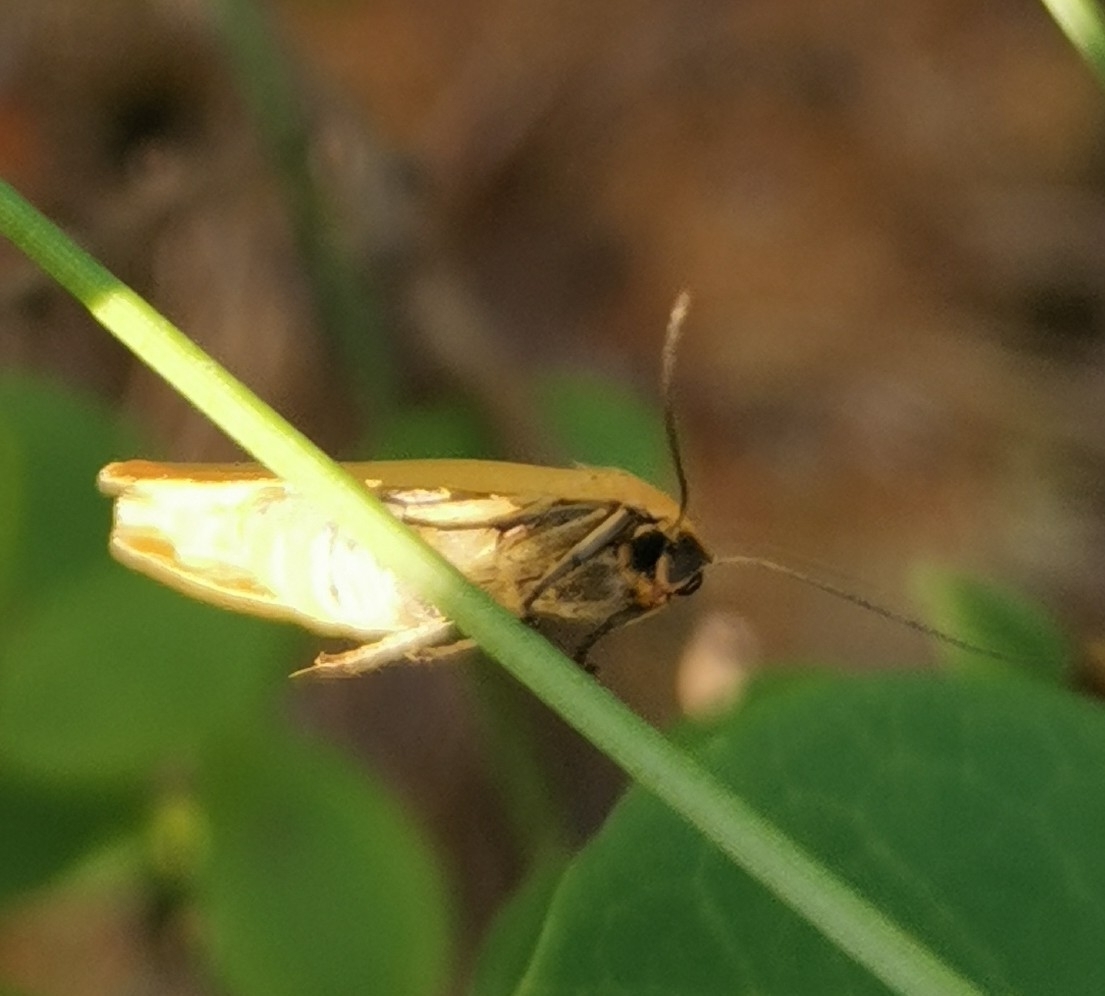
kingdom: Animalia
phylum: Arthropoda
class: Insecta
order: Lepidoptera
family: Erebidae
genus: Indalia
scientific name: Indalia lutarella
